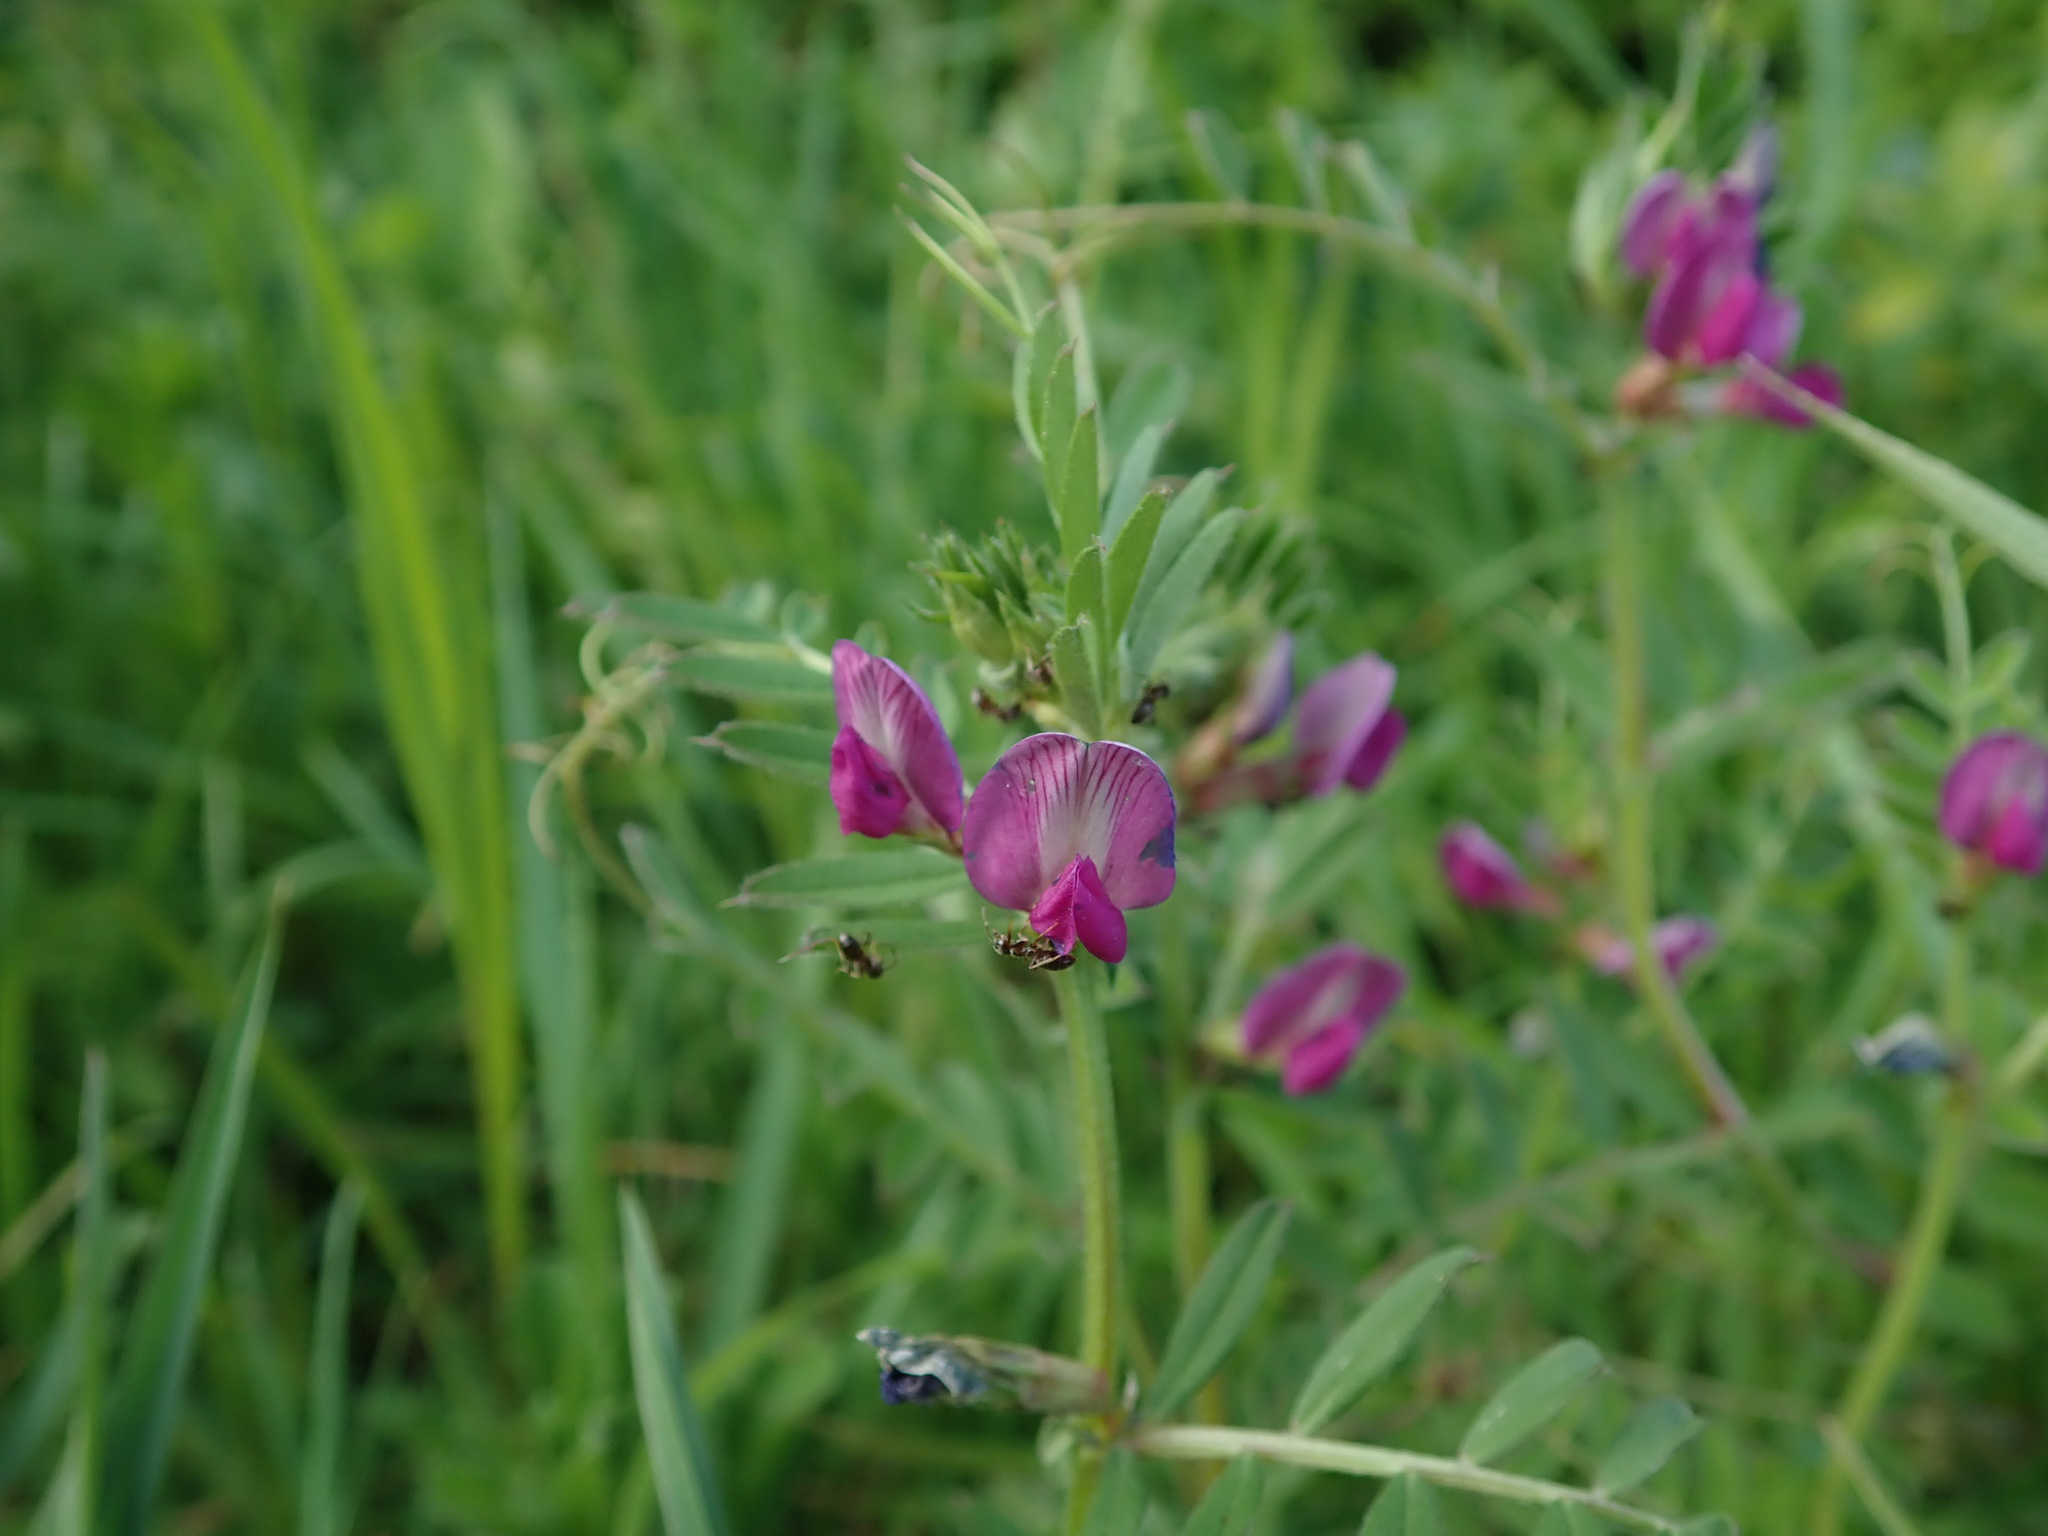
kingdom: Plantae
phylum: Tracheophyta
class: Magnoliopsida
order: Fabales
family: Fabaceae
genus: Vicia
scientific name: Vicia sativa
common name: Garden vetch
